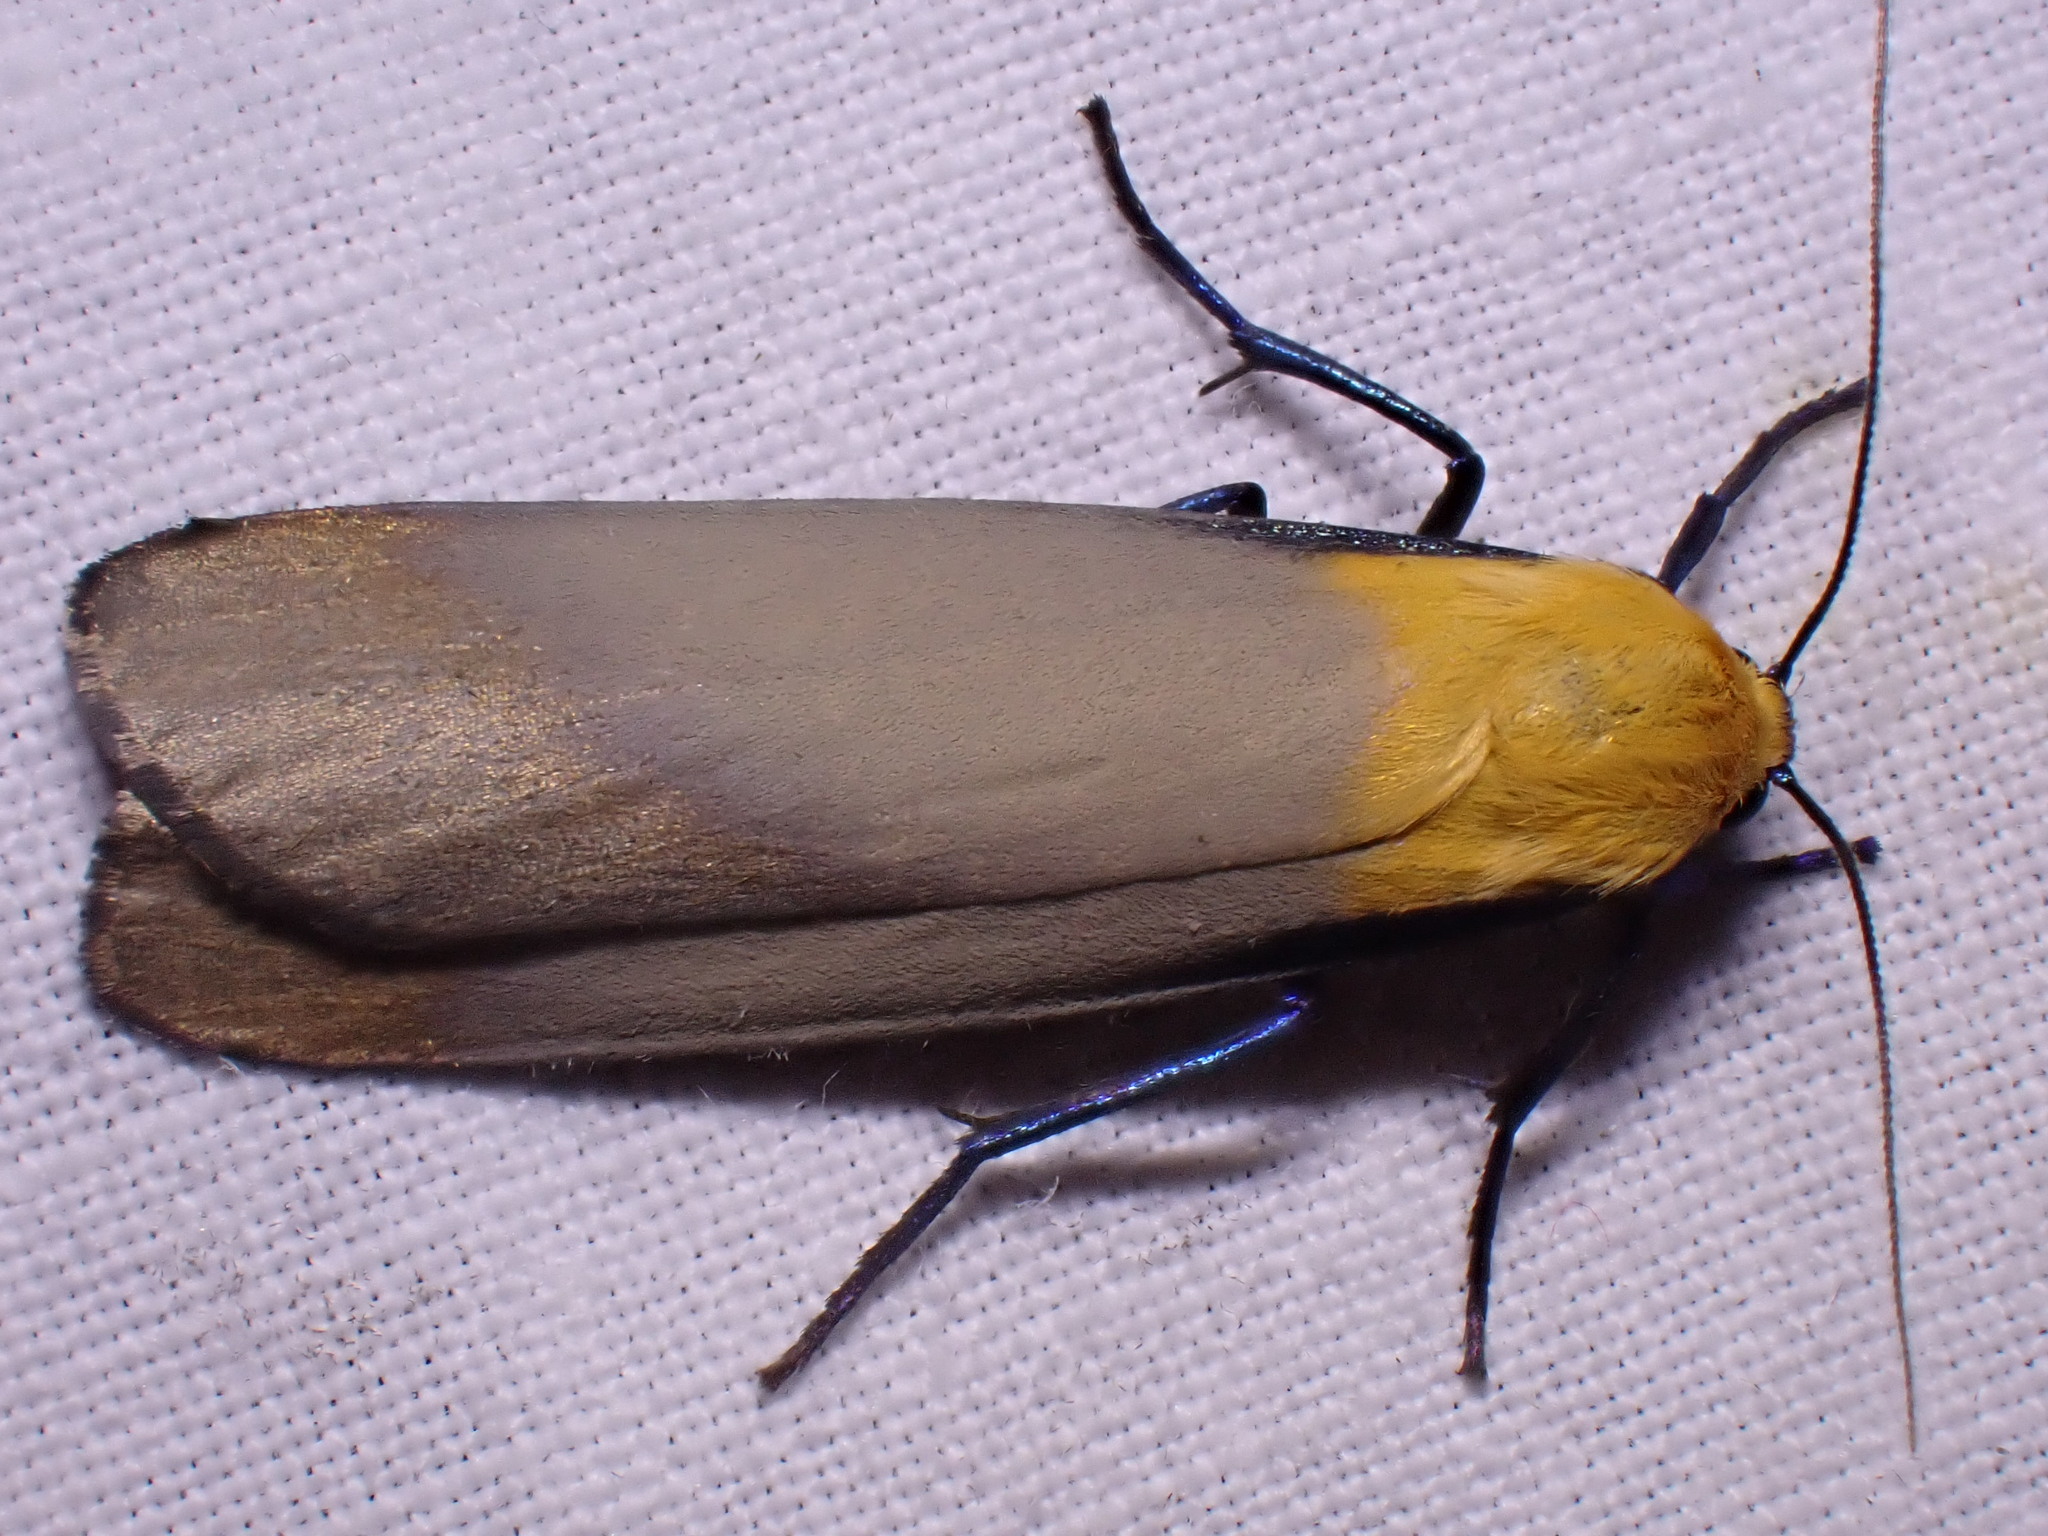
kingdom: Animalia
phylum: Arthropoda
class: Insecta
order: Lepidoptera
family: Erebidae
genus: Lithosia
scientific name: Lithosia quadra
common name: Four-spotted footman
